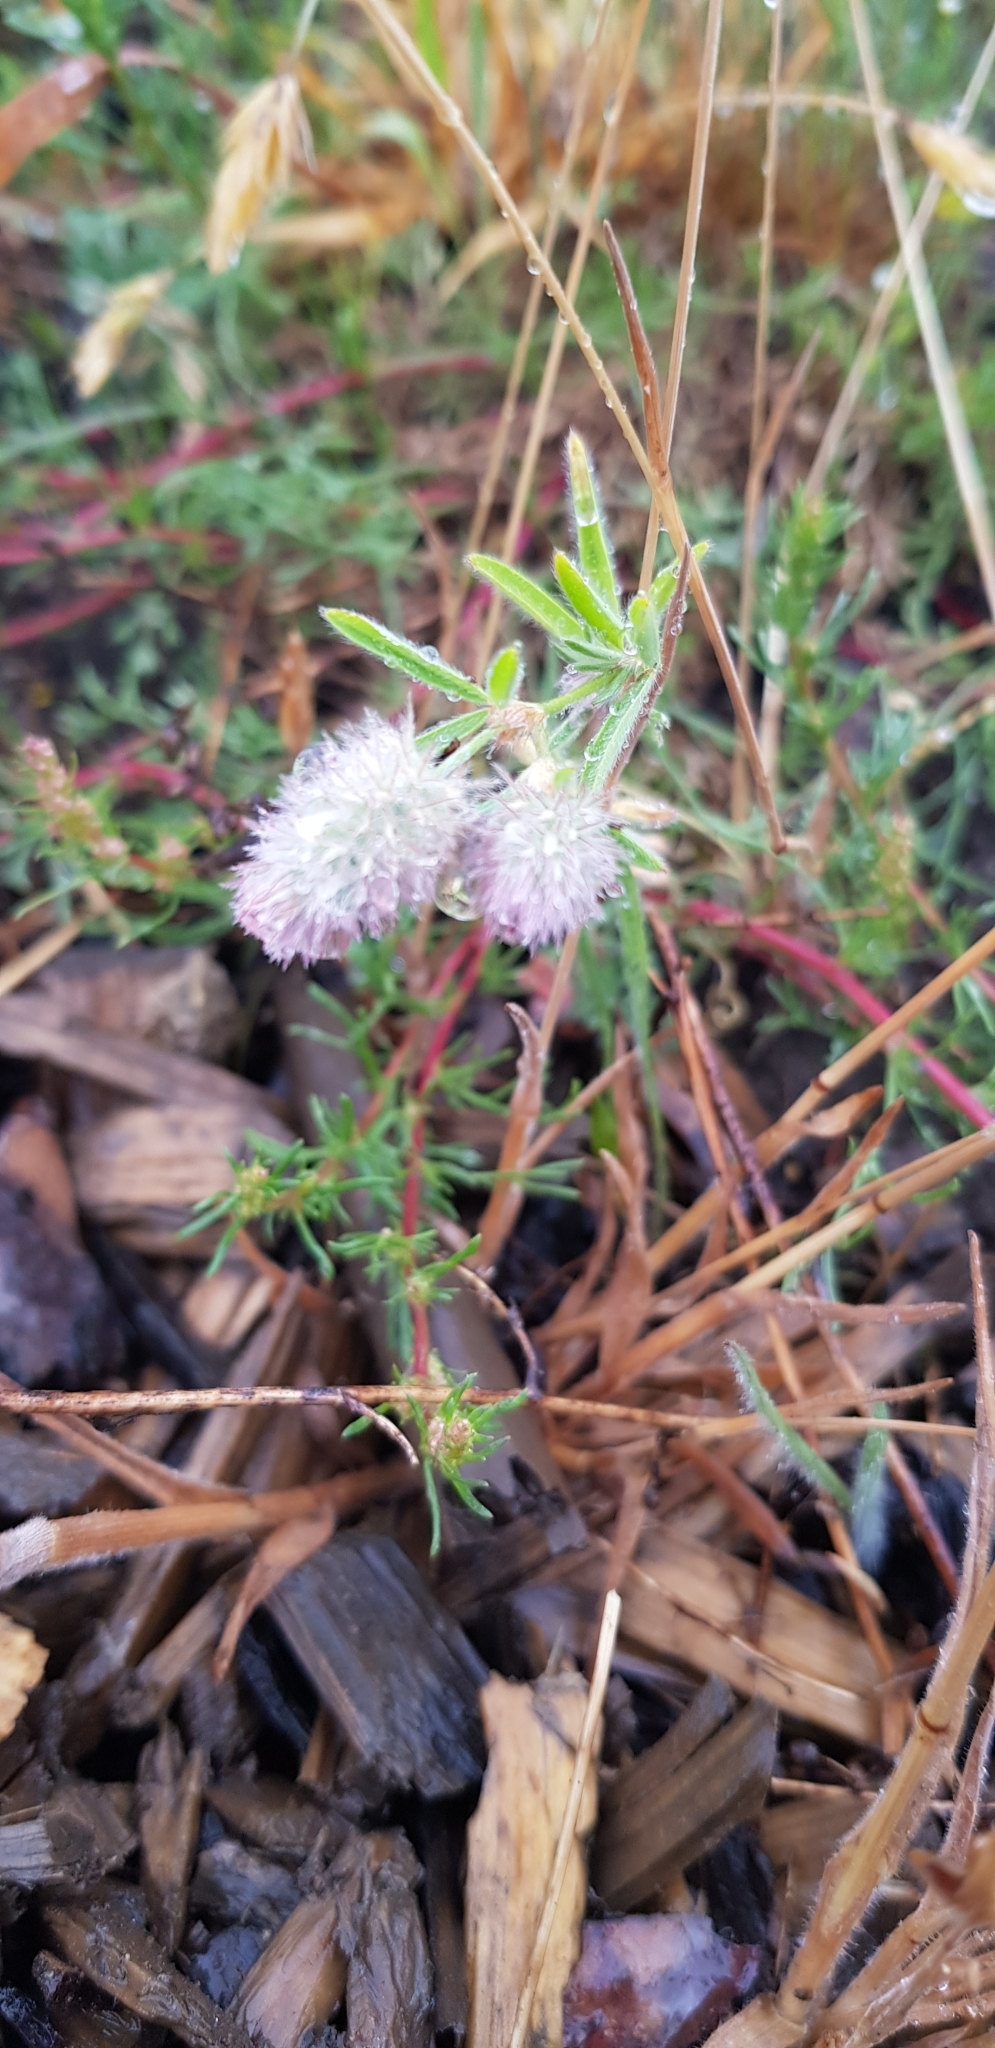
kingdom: Plantae
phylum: Tracheophyta
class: Magnoliopsida
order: Fabales
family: Fabaceae
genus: Trifolium
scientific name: Trifolium arvense
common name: Hare's-foot clover
